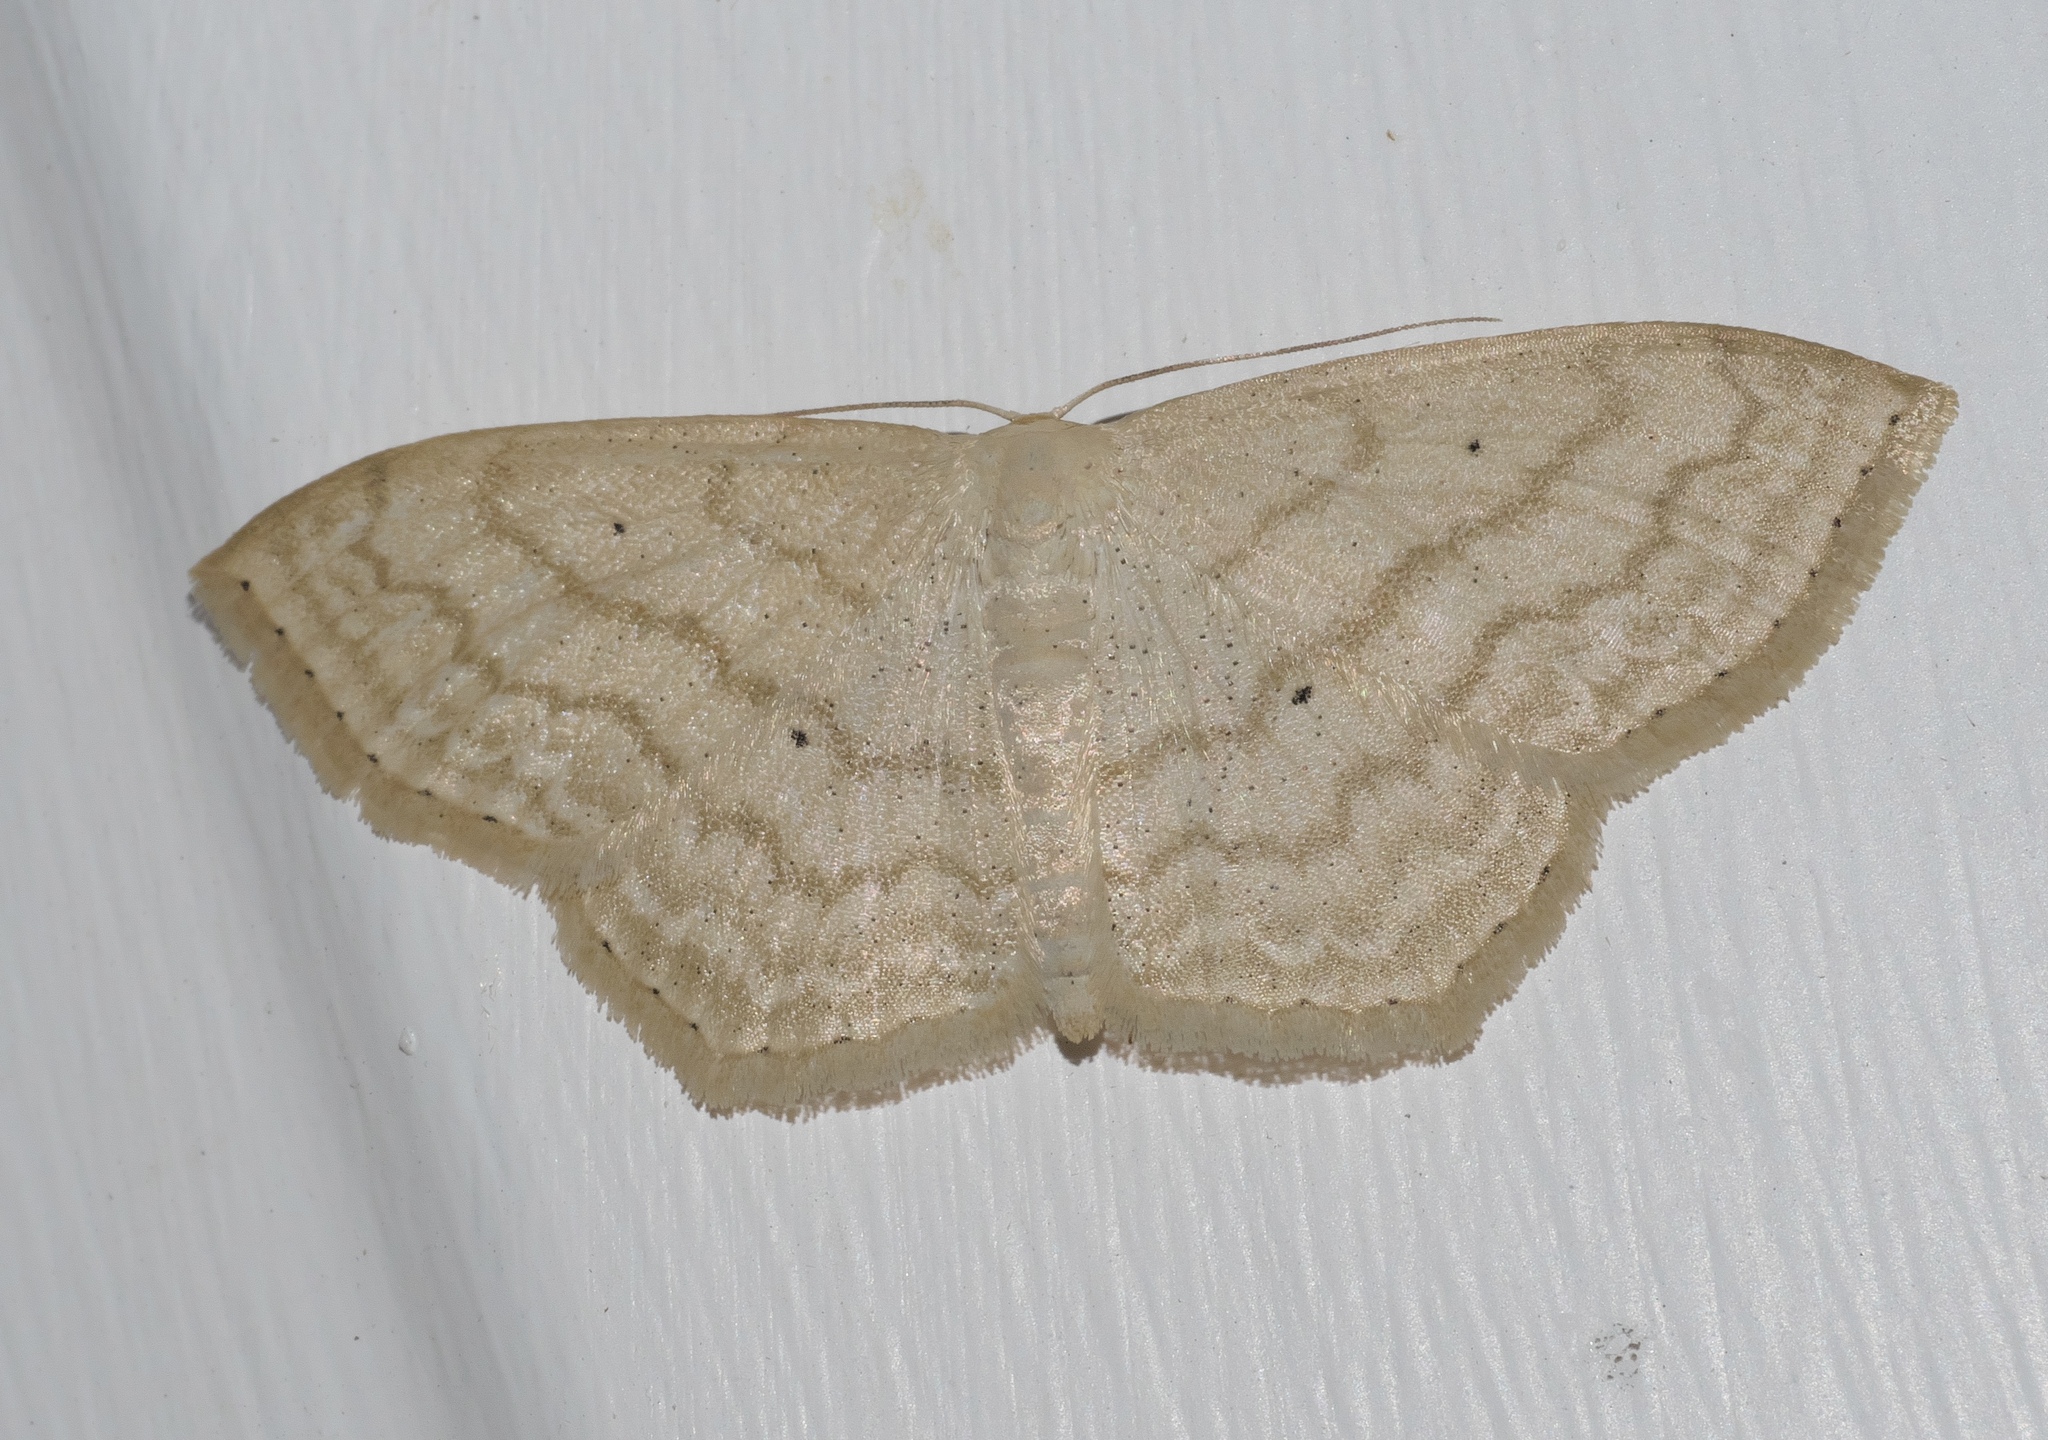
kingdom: Animalia
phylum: Arthropoda
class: Insecta
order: Lepidoptera
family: Geometridae
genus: Scopula
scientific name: Scopula limboundata
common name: Large lace border
